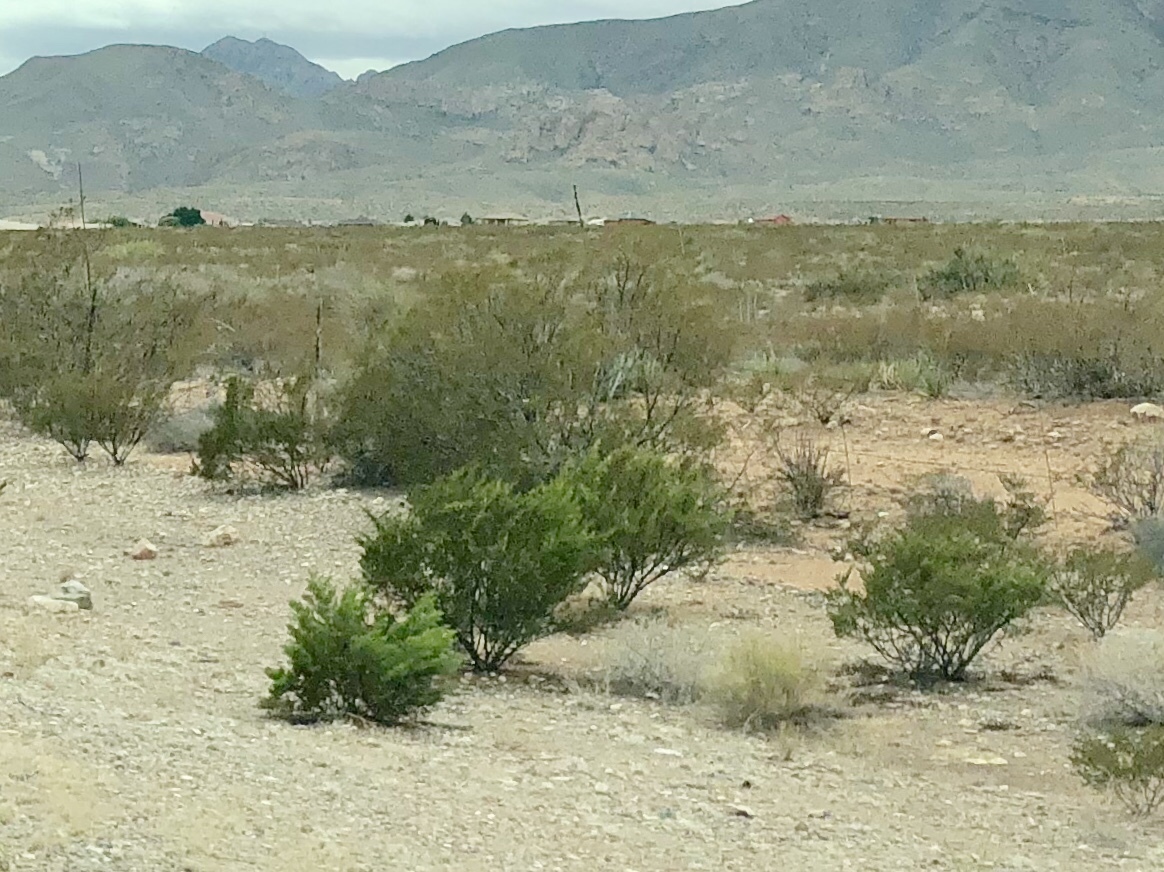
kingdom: Plantae
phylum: Tracheophyta
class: Magnoliopsida
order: Zygophyllales
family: Zygophyllaceae
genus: Larrea
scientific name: Larrea tridentata
